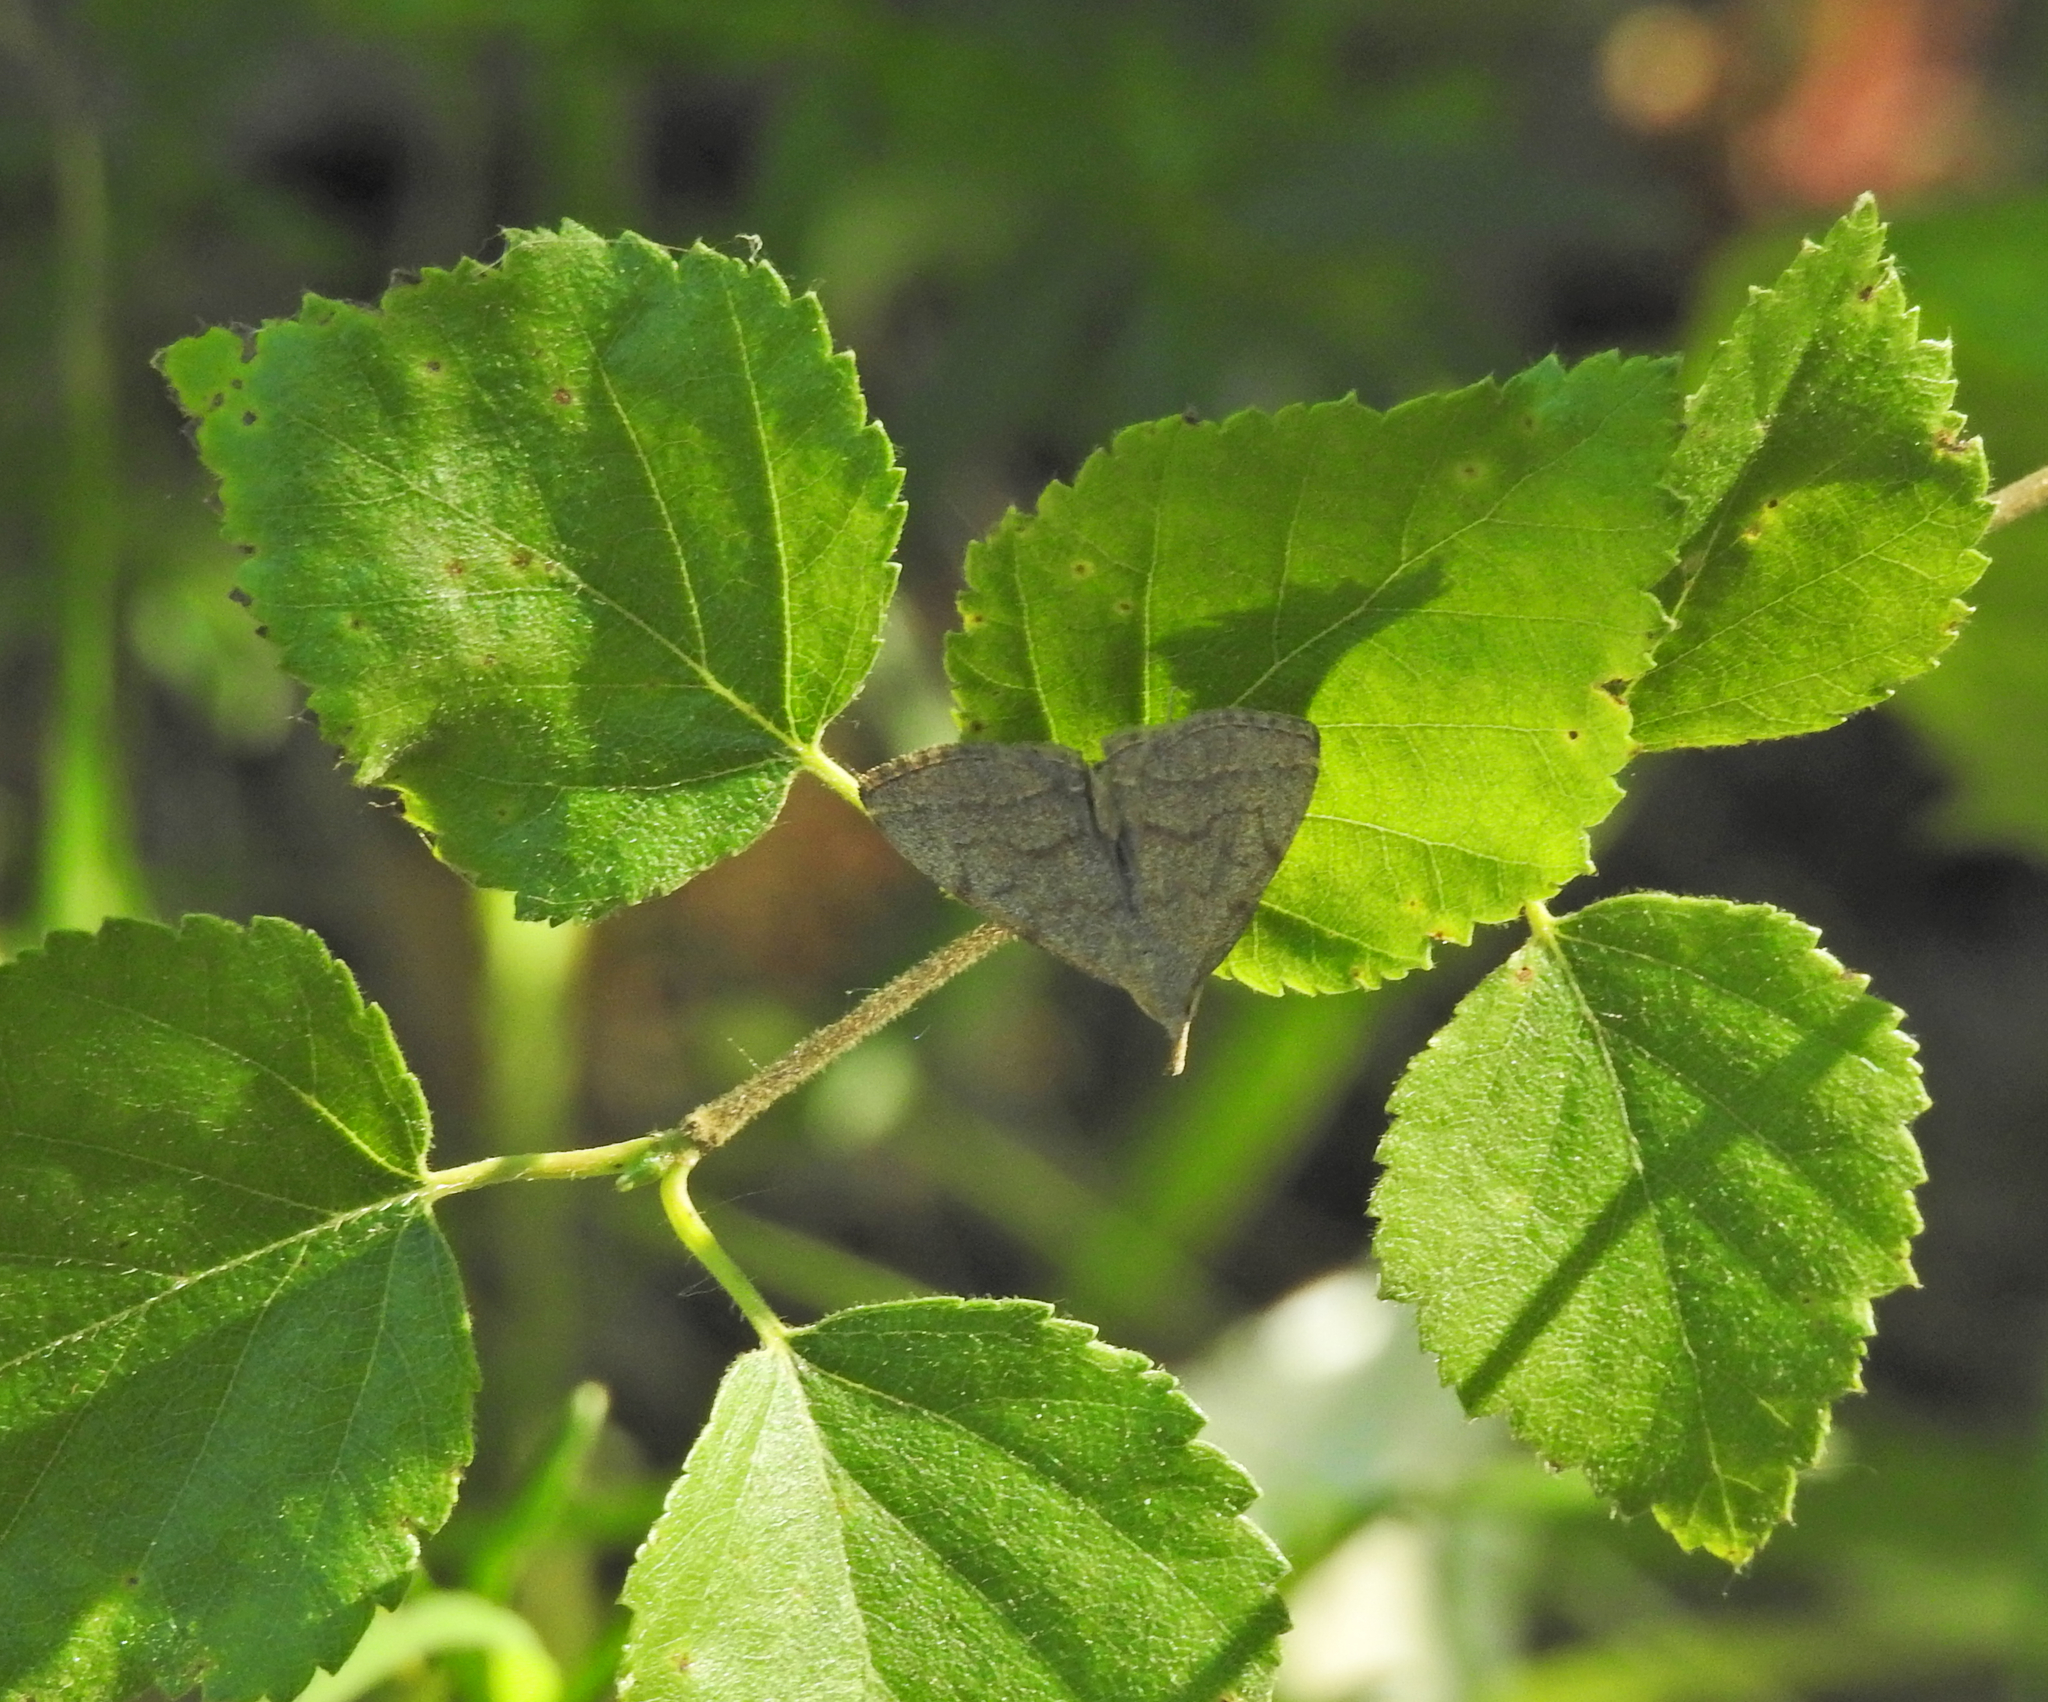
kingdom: Animalia
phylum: Arthropoda
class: Insecta
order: Lepidoptera
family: Erebidae
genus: Pechipogo
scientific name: Pechipogo strigilata
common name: Common fan-foot
